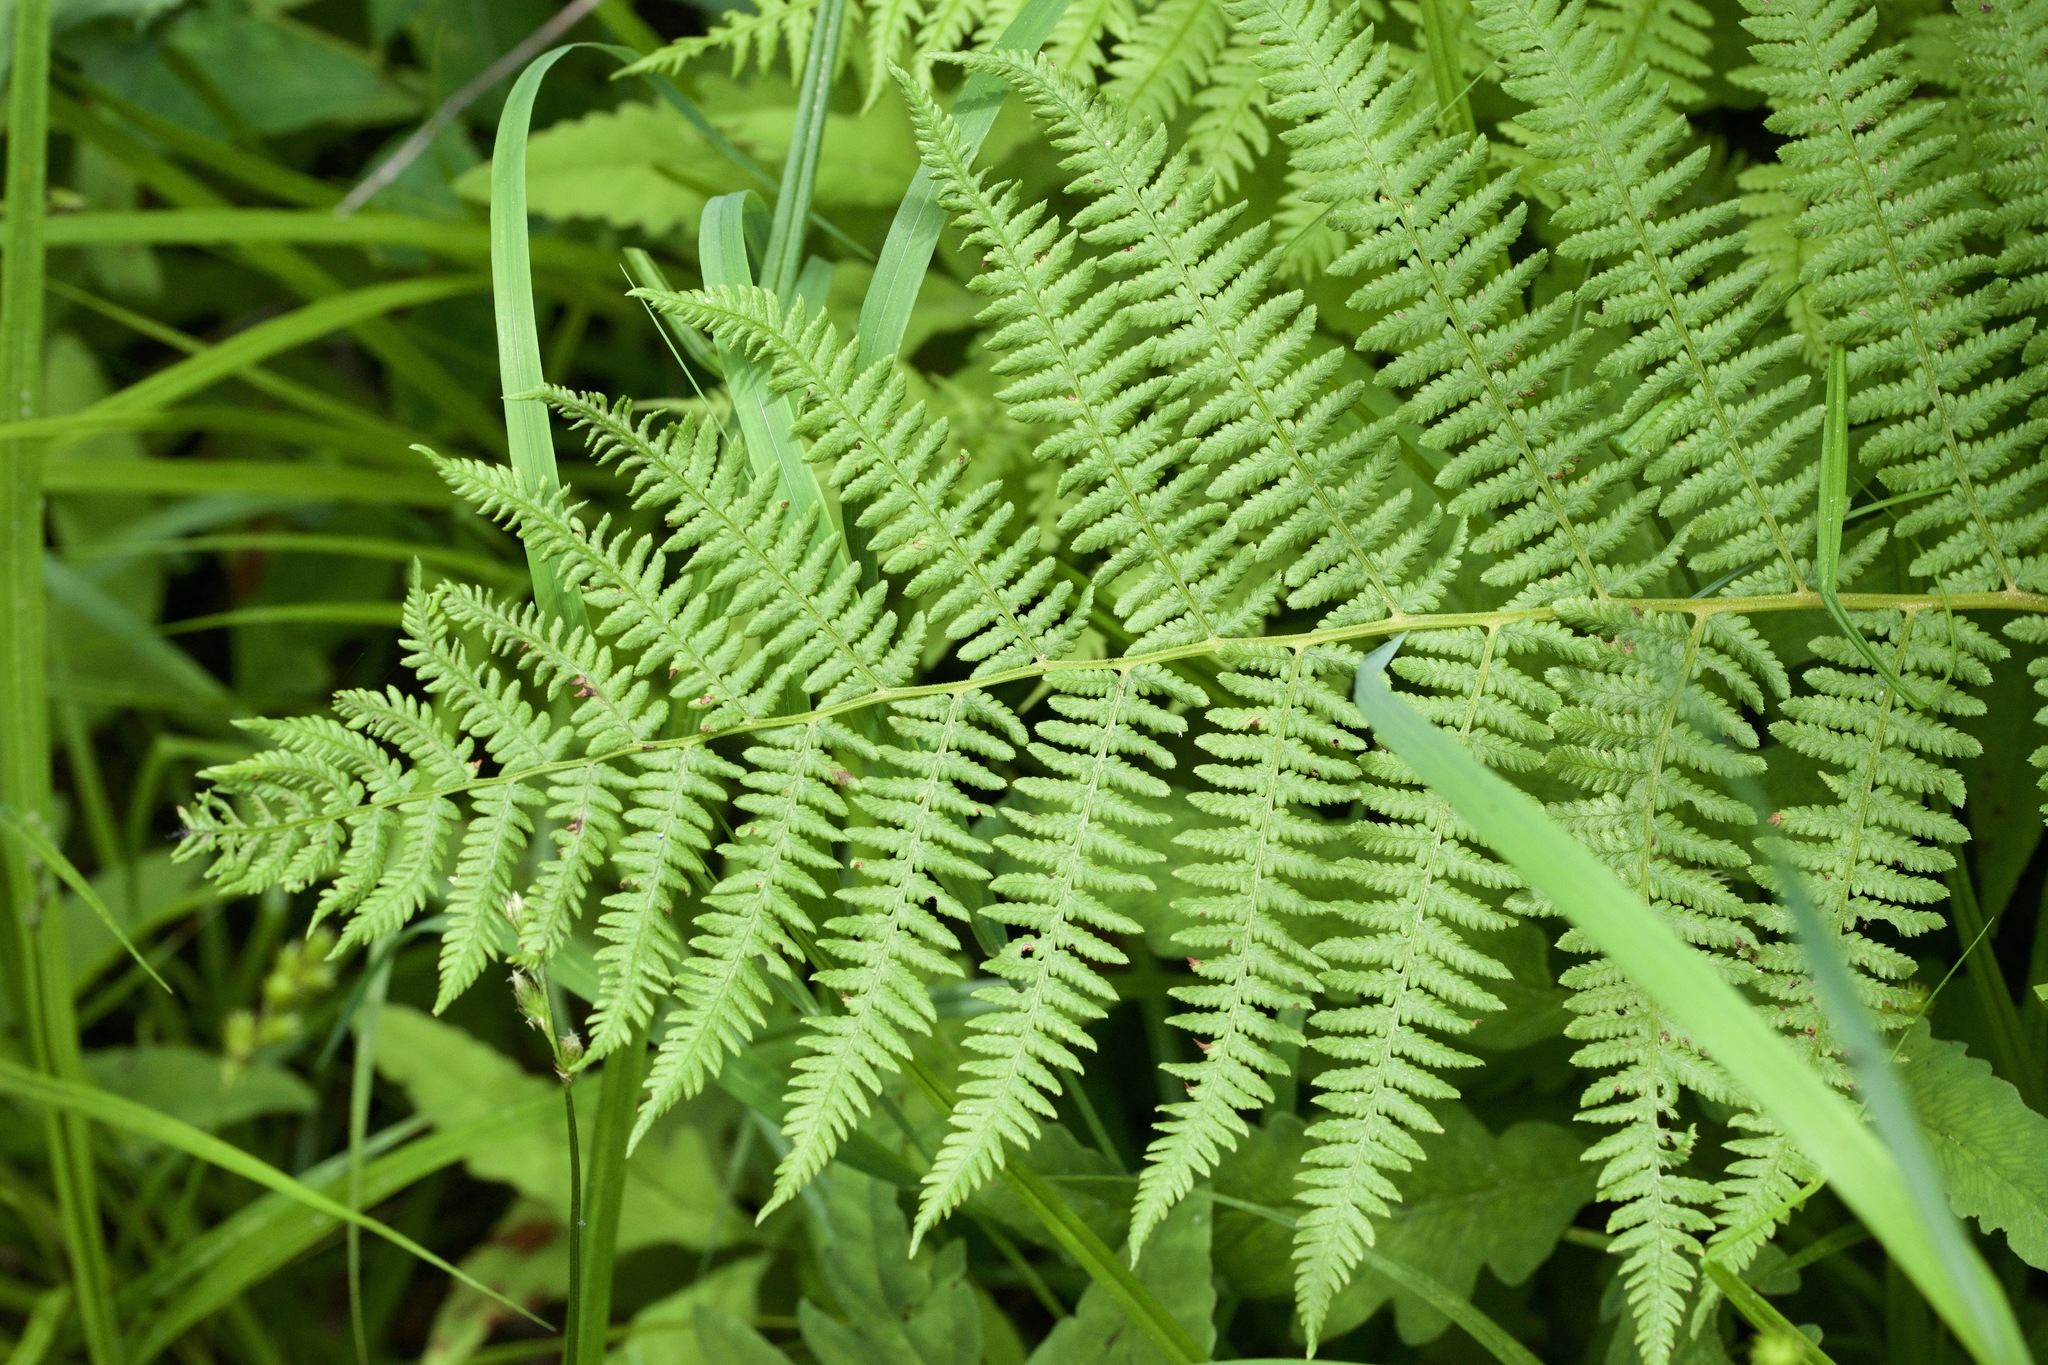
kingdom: Plantae
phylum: Tracheophyta
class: Polypodiopsida
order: Polypodiales
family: Athyriaceae
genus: Athyrium
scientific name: Athyrium angustum
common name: Northern lady fern
